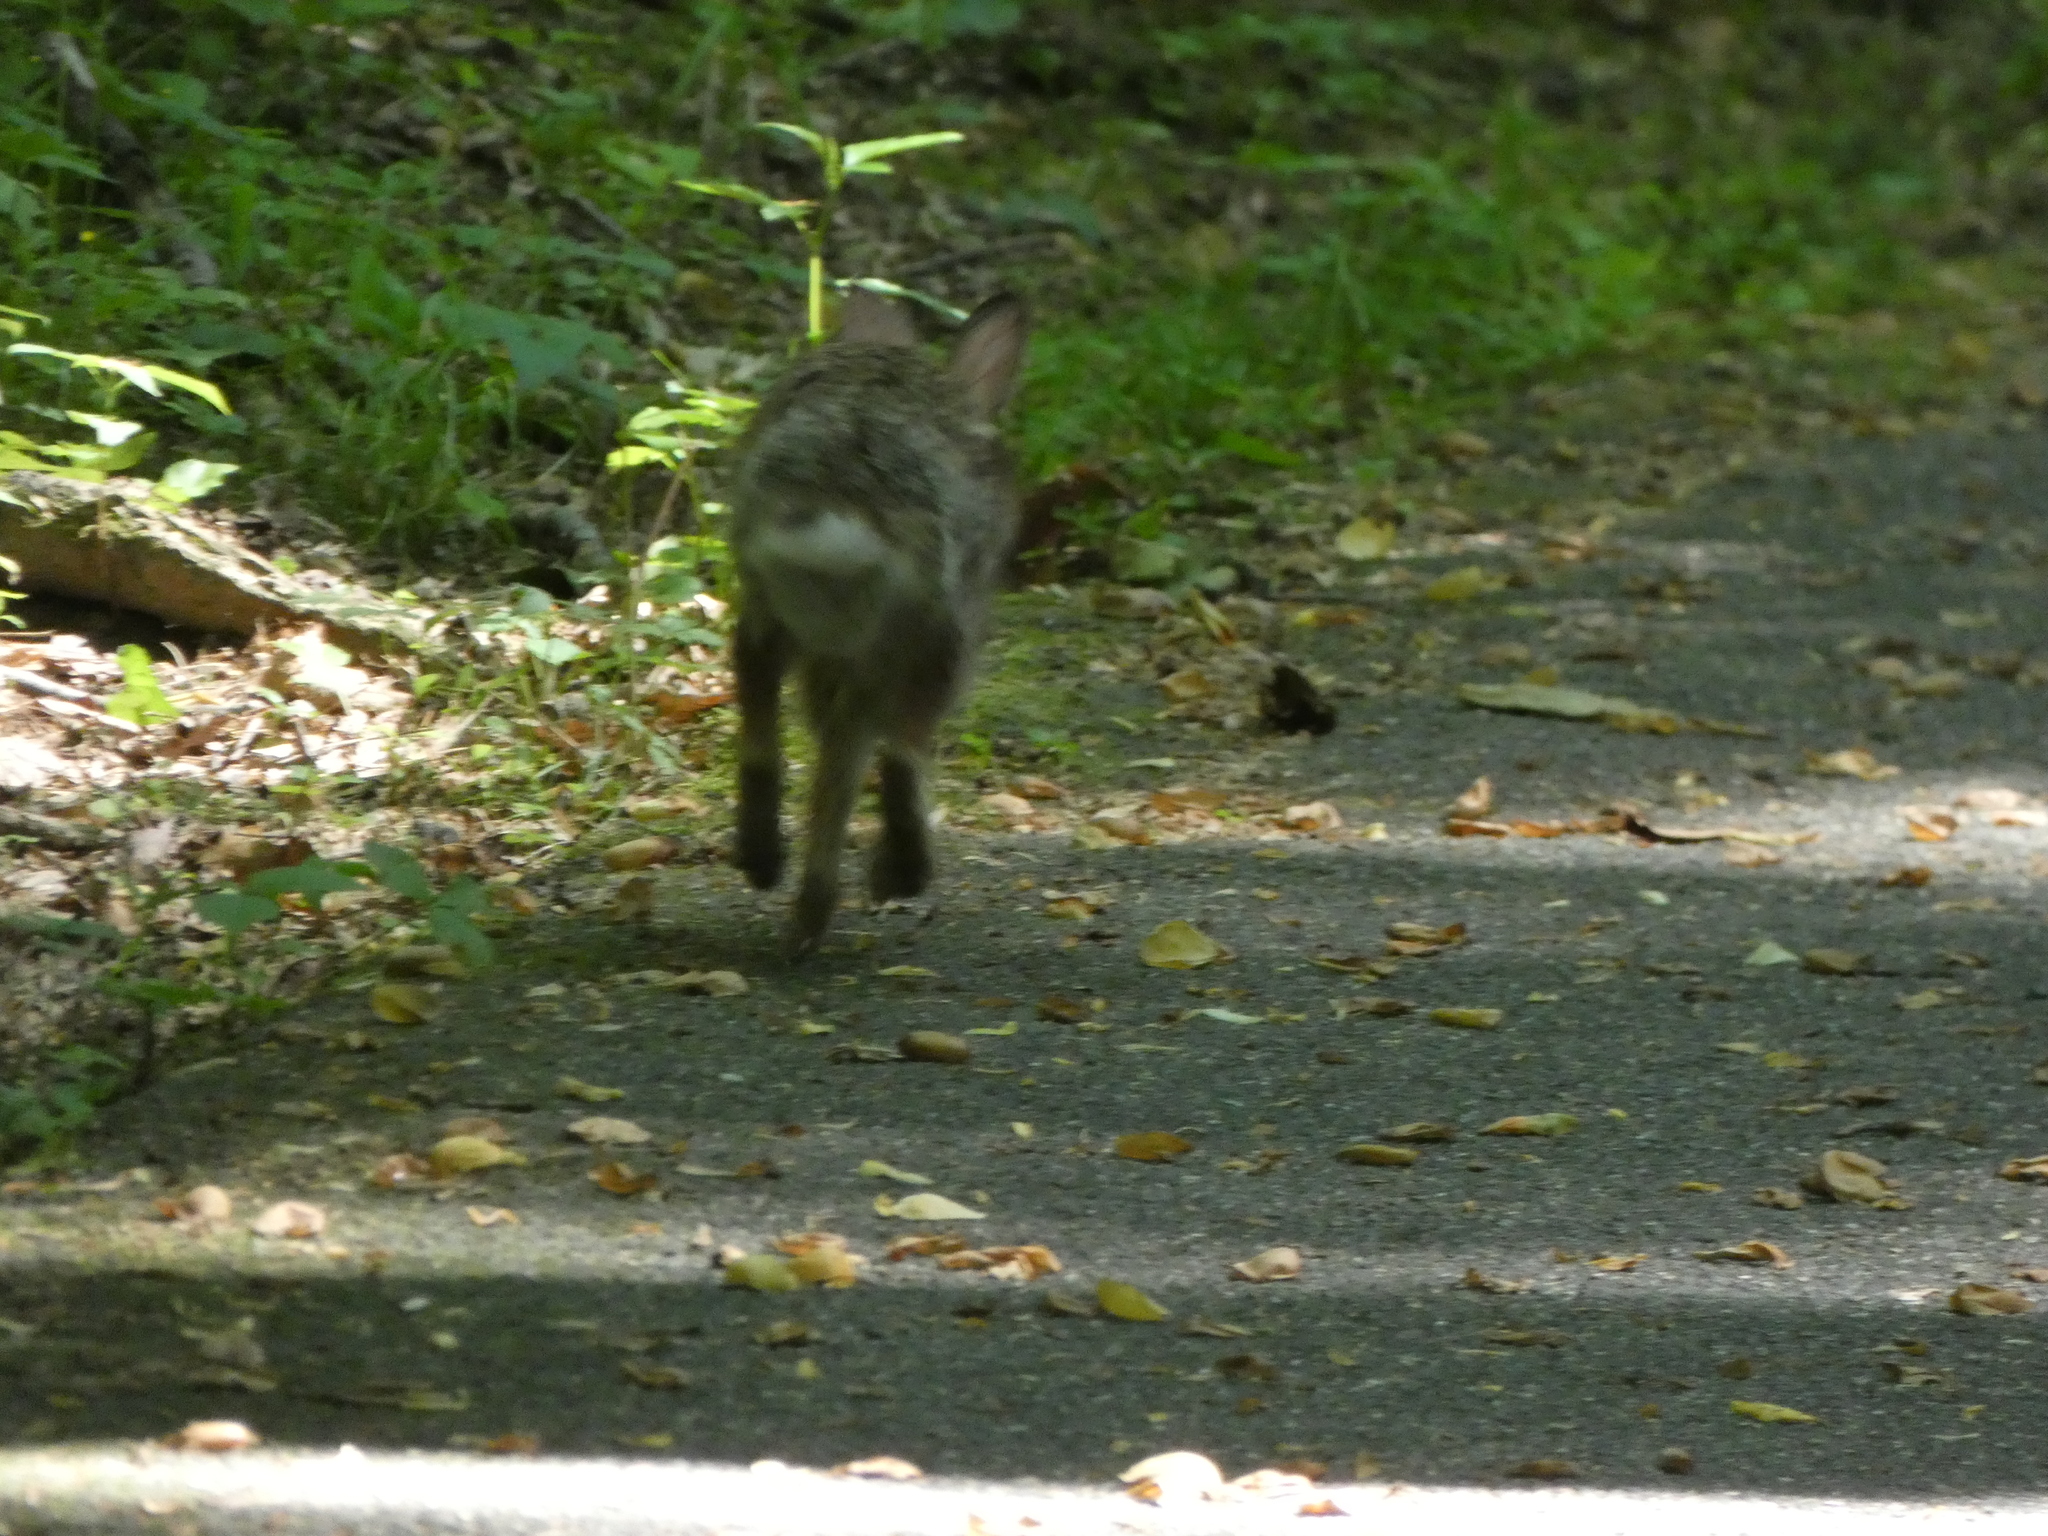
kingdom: Animalia
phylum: Chordata
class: Mammalia
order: Lagomorpha
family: Leporidae
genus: Sylvilagus
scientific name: Sylvilagus floridanus
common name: Eastern cottontail
